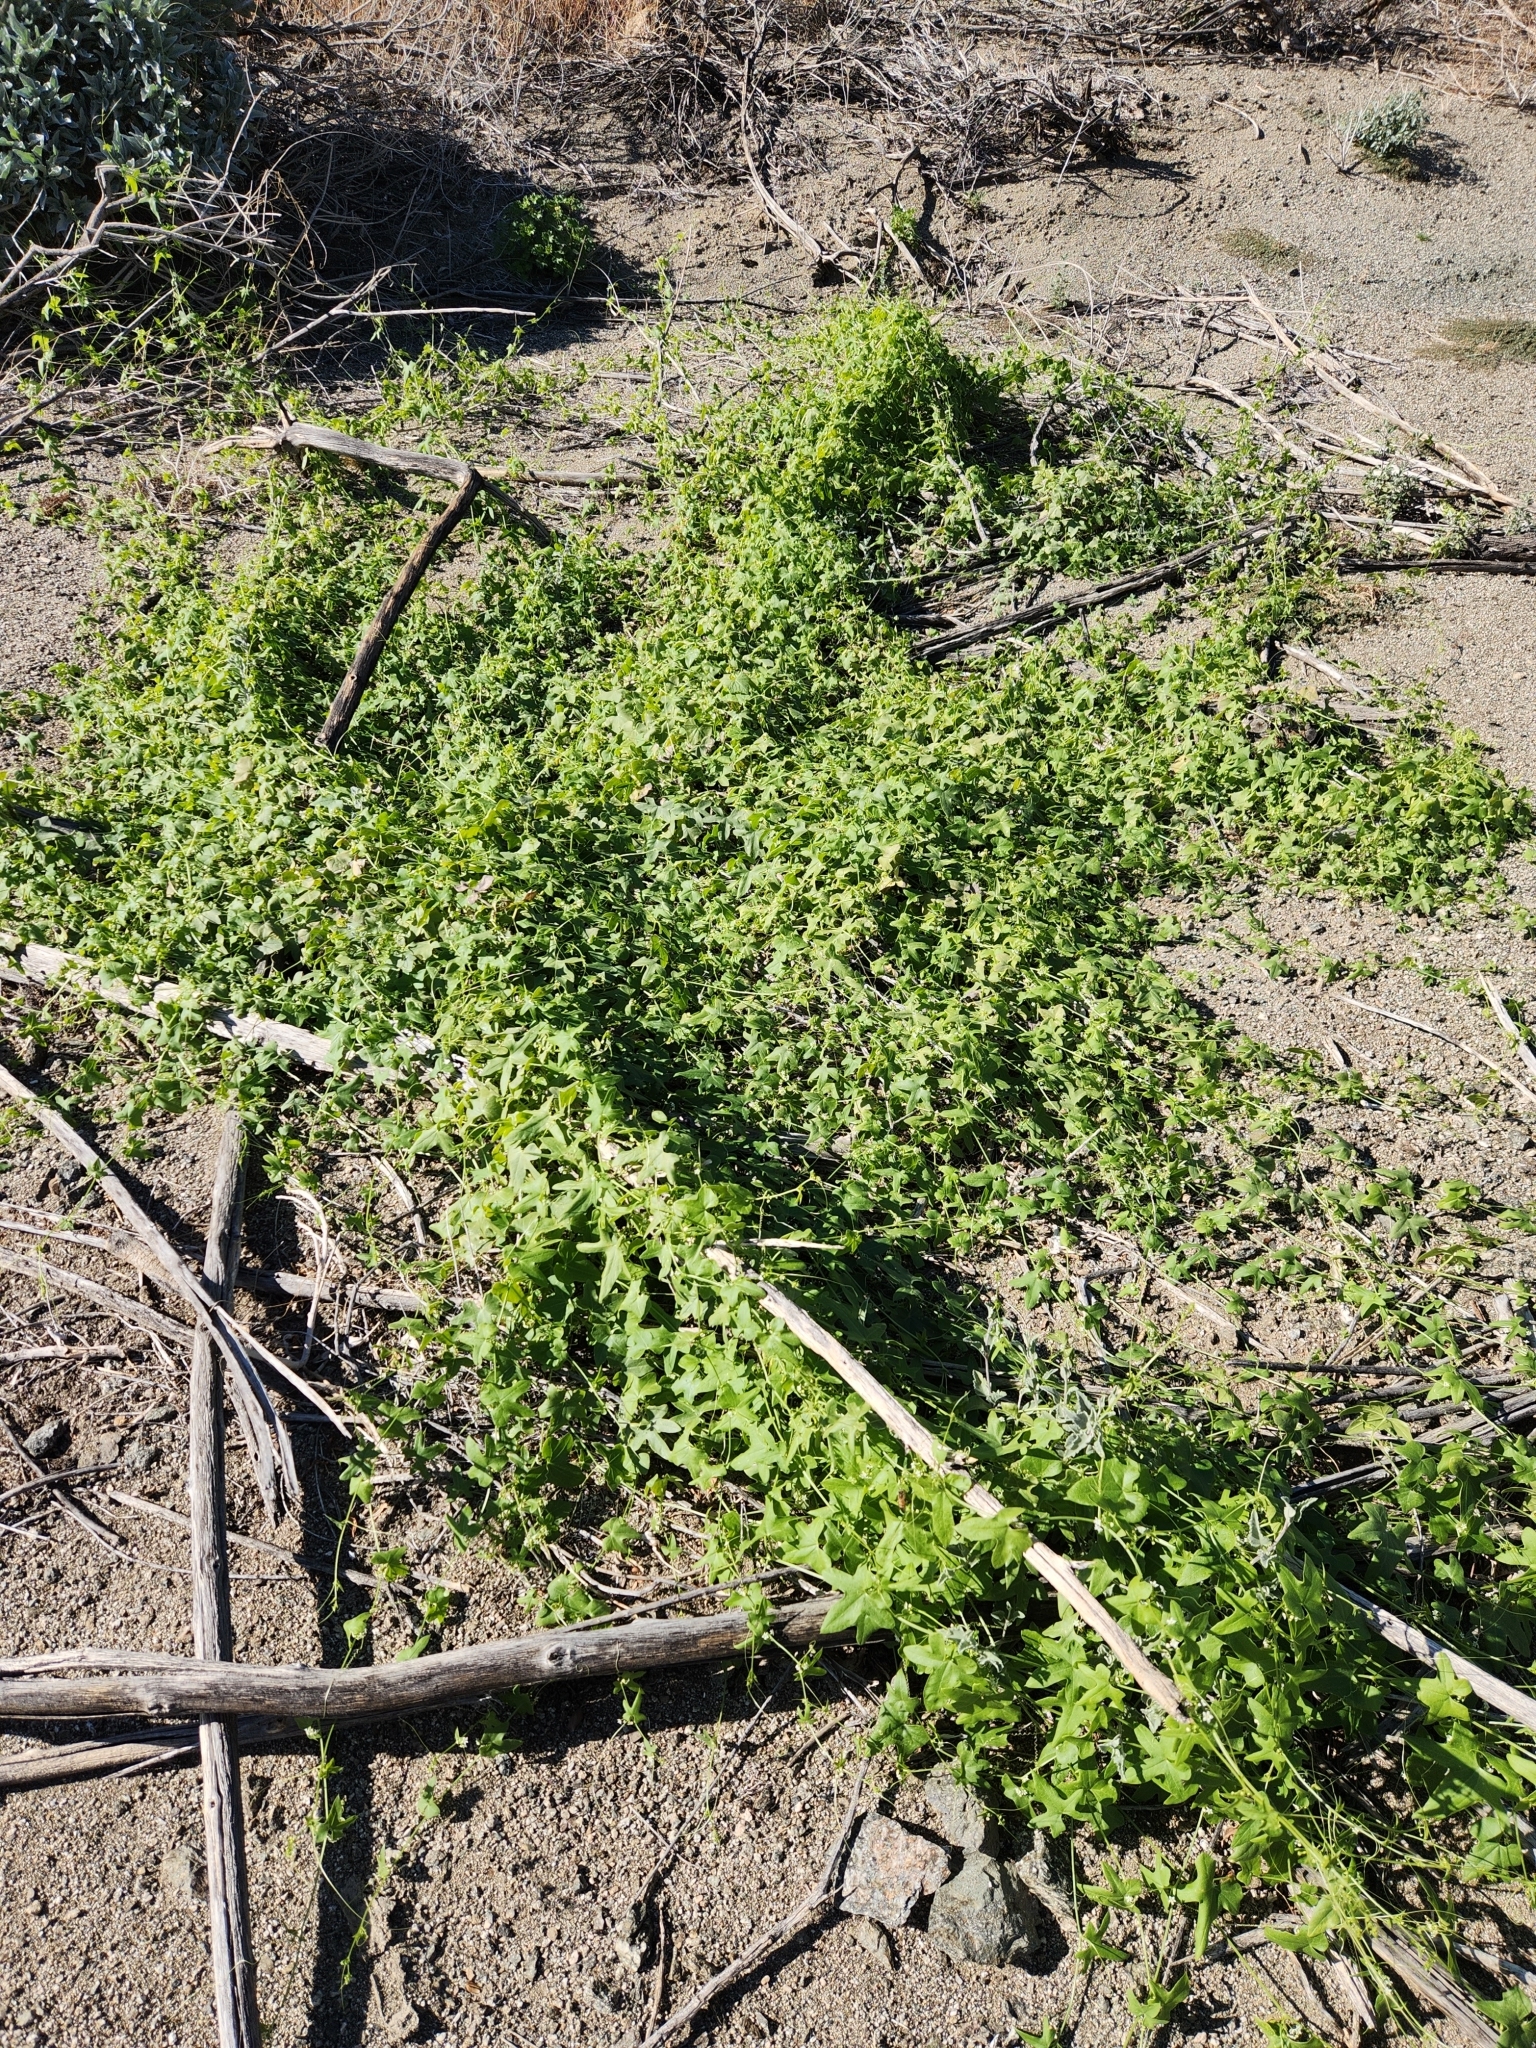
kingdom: Plantae
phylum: Tracheophyta
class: Magnoliopsida
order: Cucurbitales
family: Cucurbitaceae
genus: Echinopepon
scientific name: Echinopepon bigelovii
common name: Desert starvine
